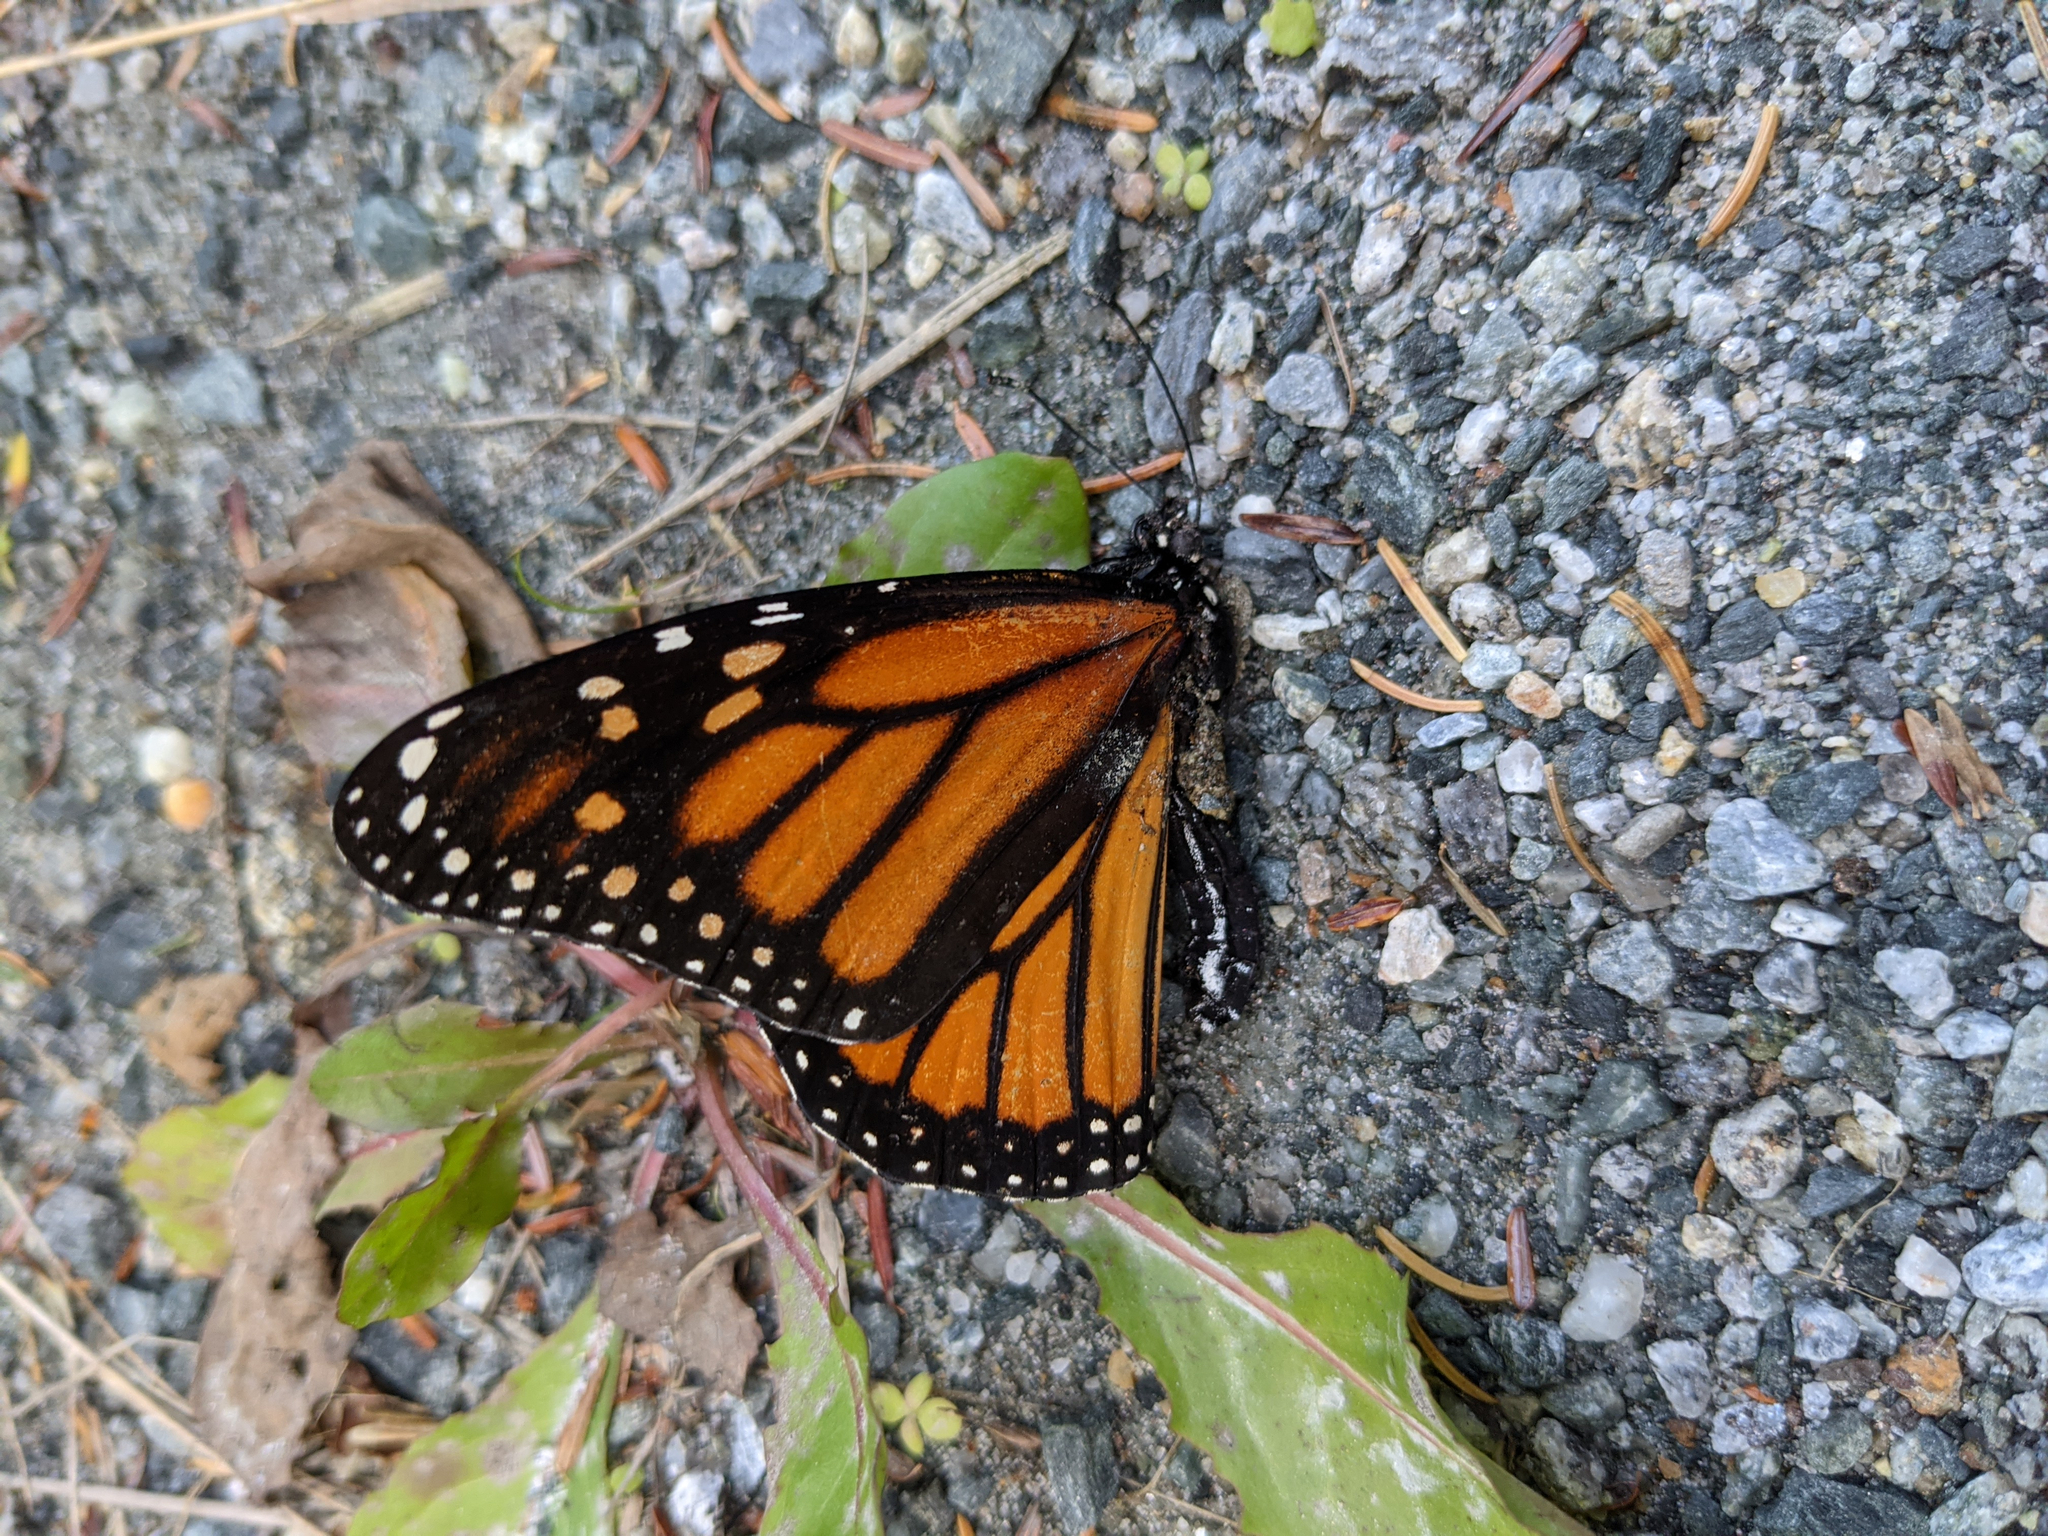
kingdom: Animalia
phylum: Arthropoda
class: Insecta
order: Lepidoptera
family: Nymphalidae
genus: Danaus
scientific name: Danaus plexippus
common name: Monarch
